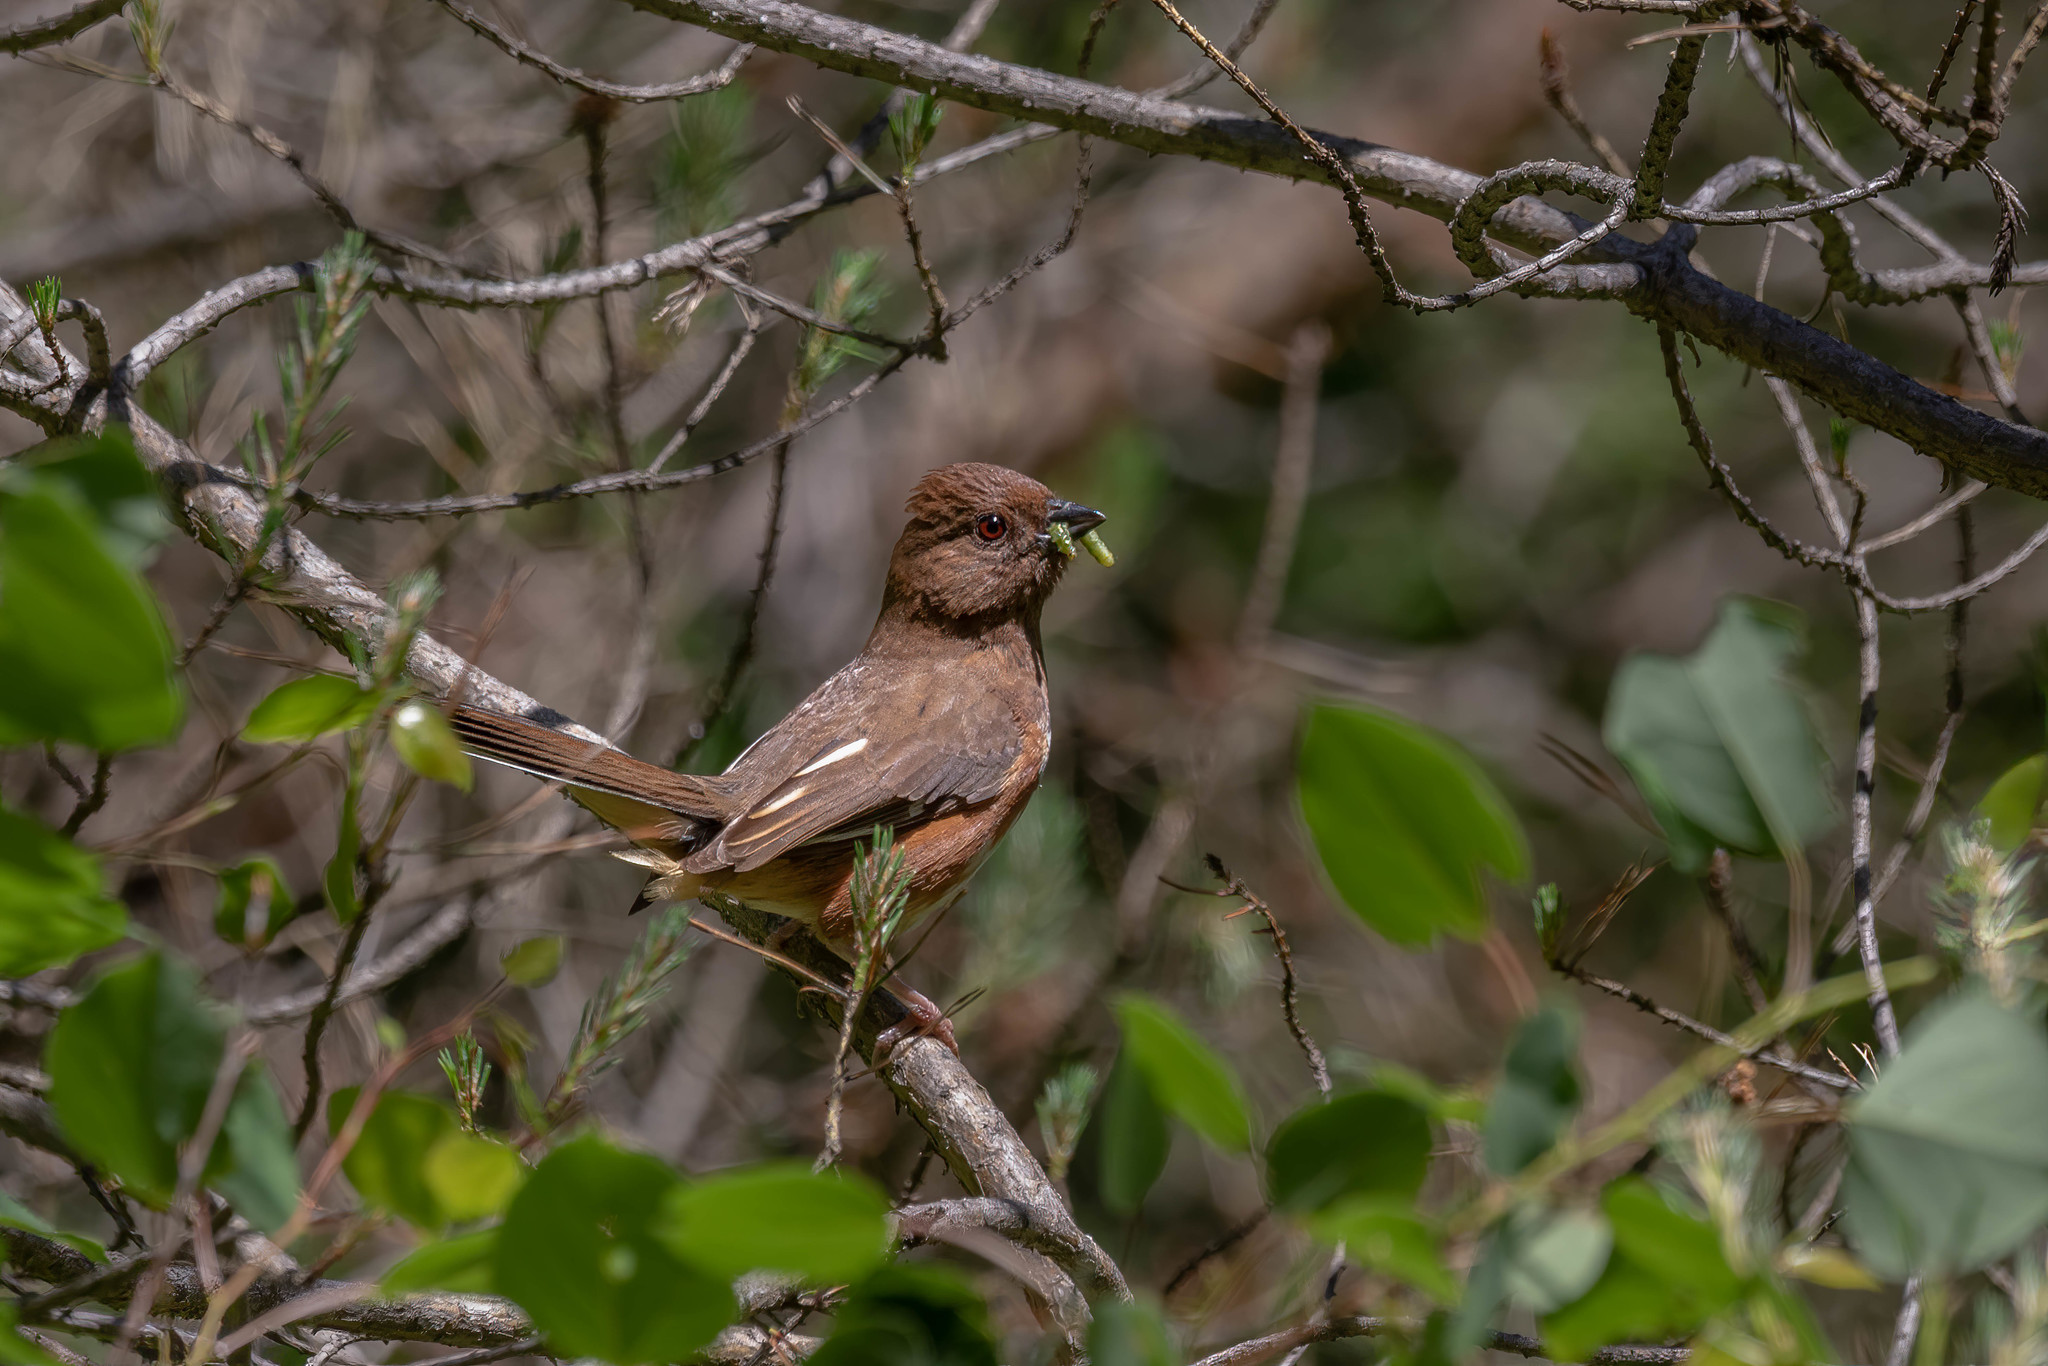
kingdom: Animalia
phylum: Chordata
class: Aves
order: Passeriformes
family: Passerellidae
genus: Pipilo
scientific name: Pipilo erythrophthalmus
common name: Eastern towhee
